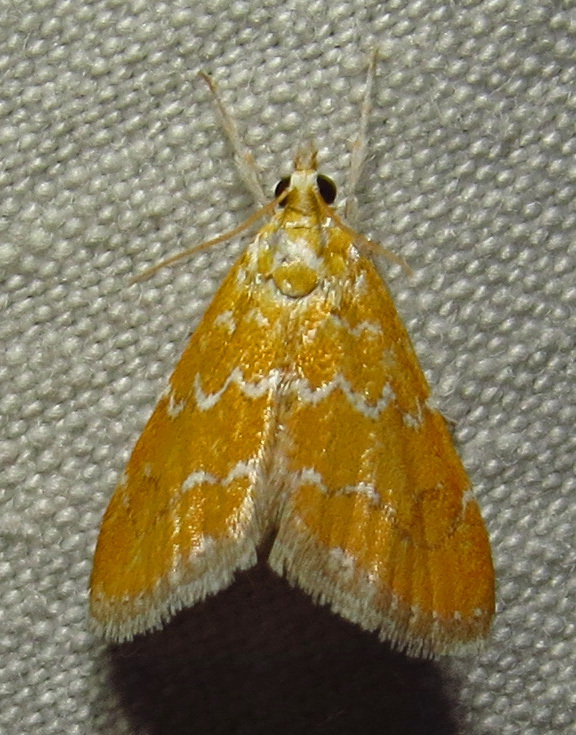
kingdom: Animalia
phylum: Arthropoda
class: Insecta
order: Lepidoptera
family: Crambidae
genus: Xanthophysa
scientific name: Xanthophysa psychicalis
